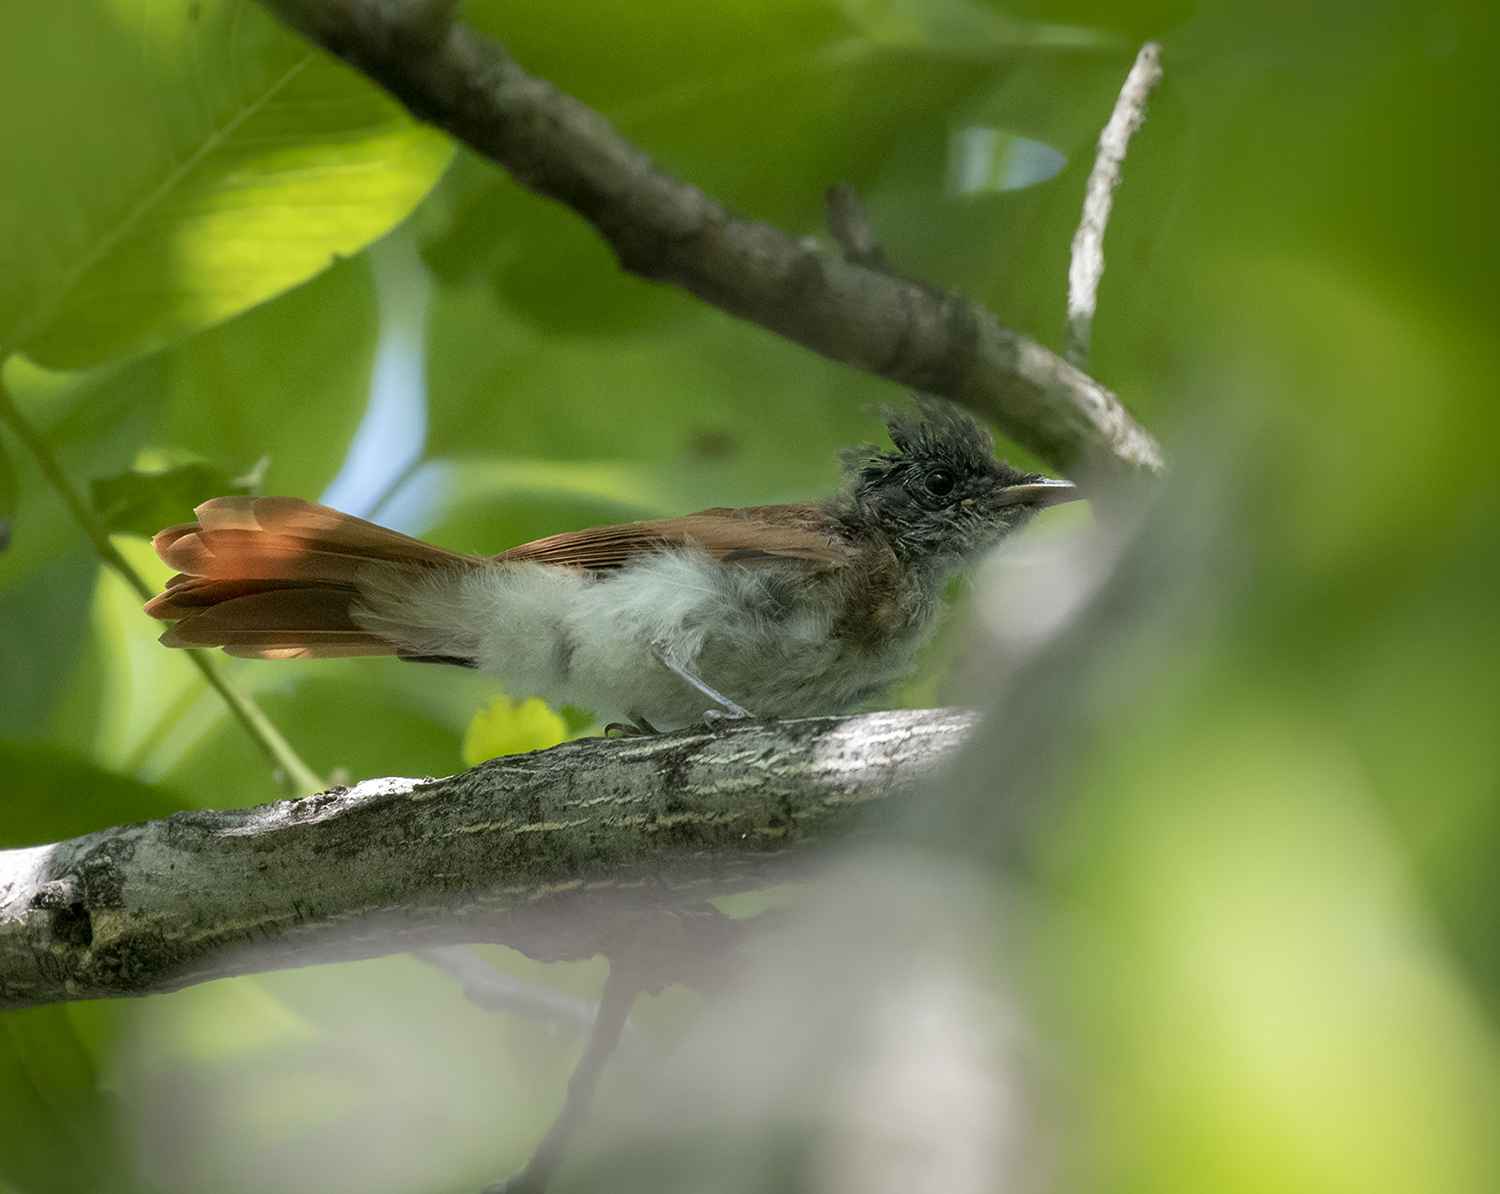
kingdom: Animalia
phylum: Chordata
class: Aves
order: Passeriformes
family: Monarchidae
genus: Terpsiphone
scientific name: Terpsiphone paradisi
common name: Indian paradise flycatcher
